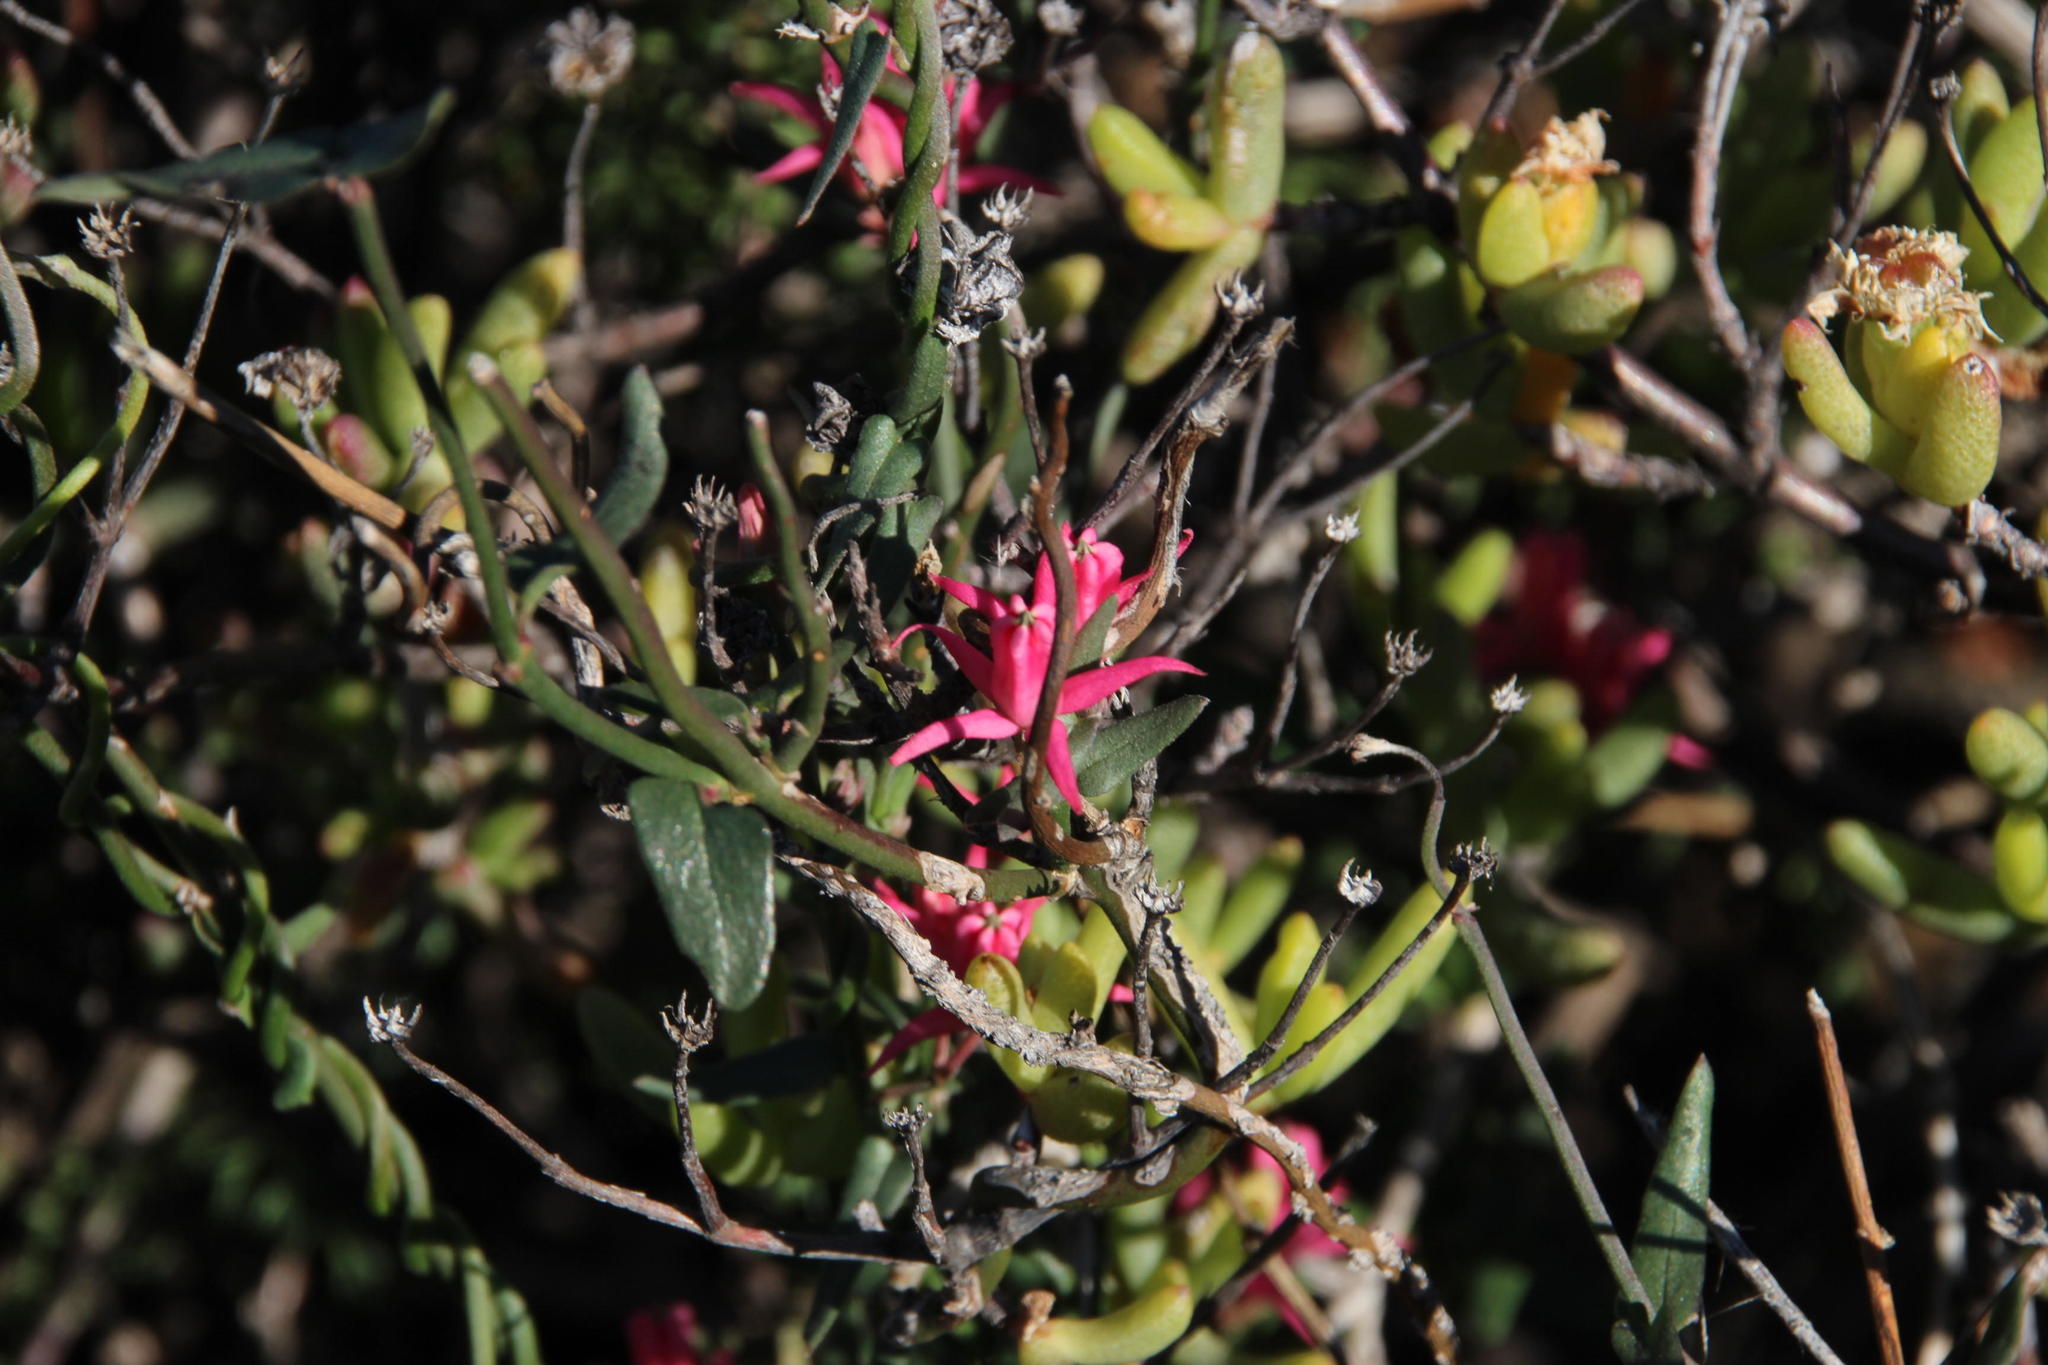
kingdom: Plantae
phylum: Tracheophyta
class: Magnoliopsida
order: Gentianales
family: Apocynaceae
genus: Microloma
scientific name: Microloma sagittatum
